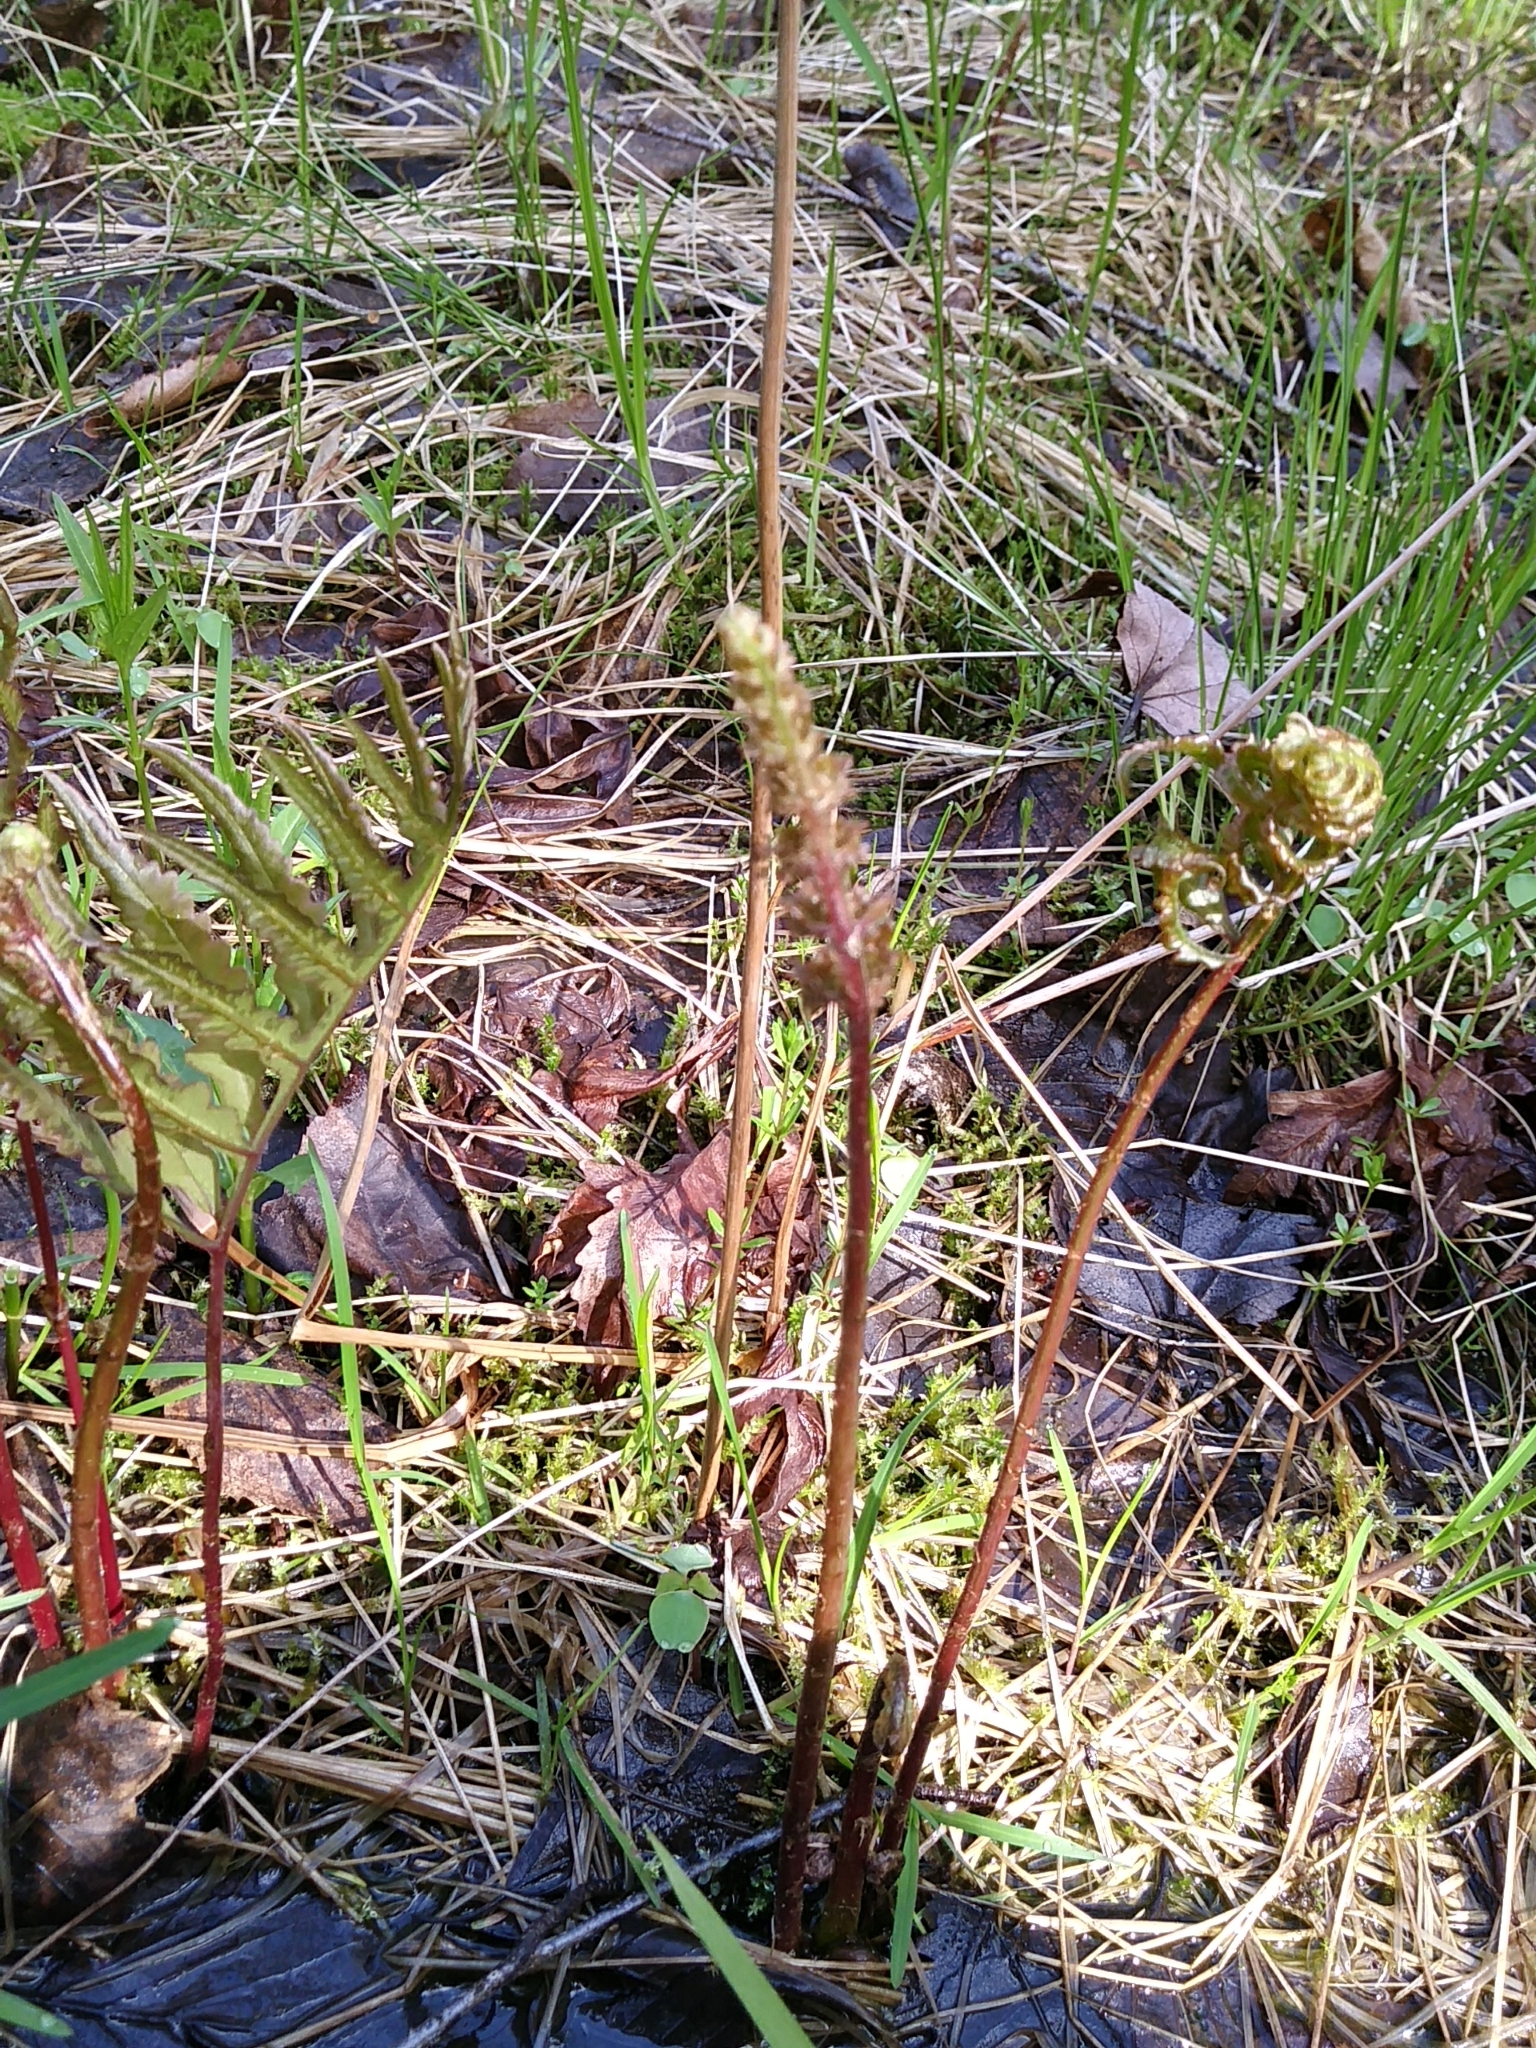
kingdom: Plantae
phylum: Tracheophyta
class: Polypodiopsida
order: Polypodiales
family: Onocleaceae
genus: Onoclea
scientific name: Onoclea sensibilis
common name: Sensitive fern
